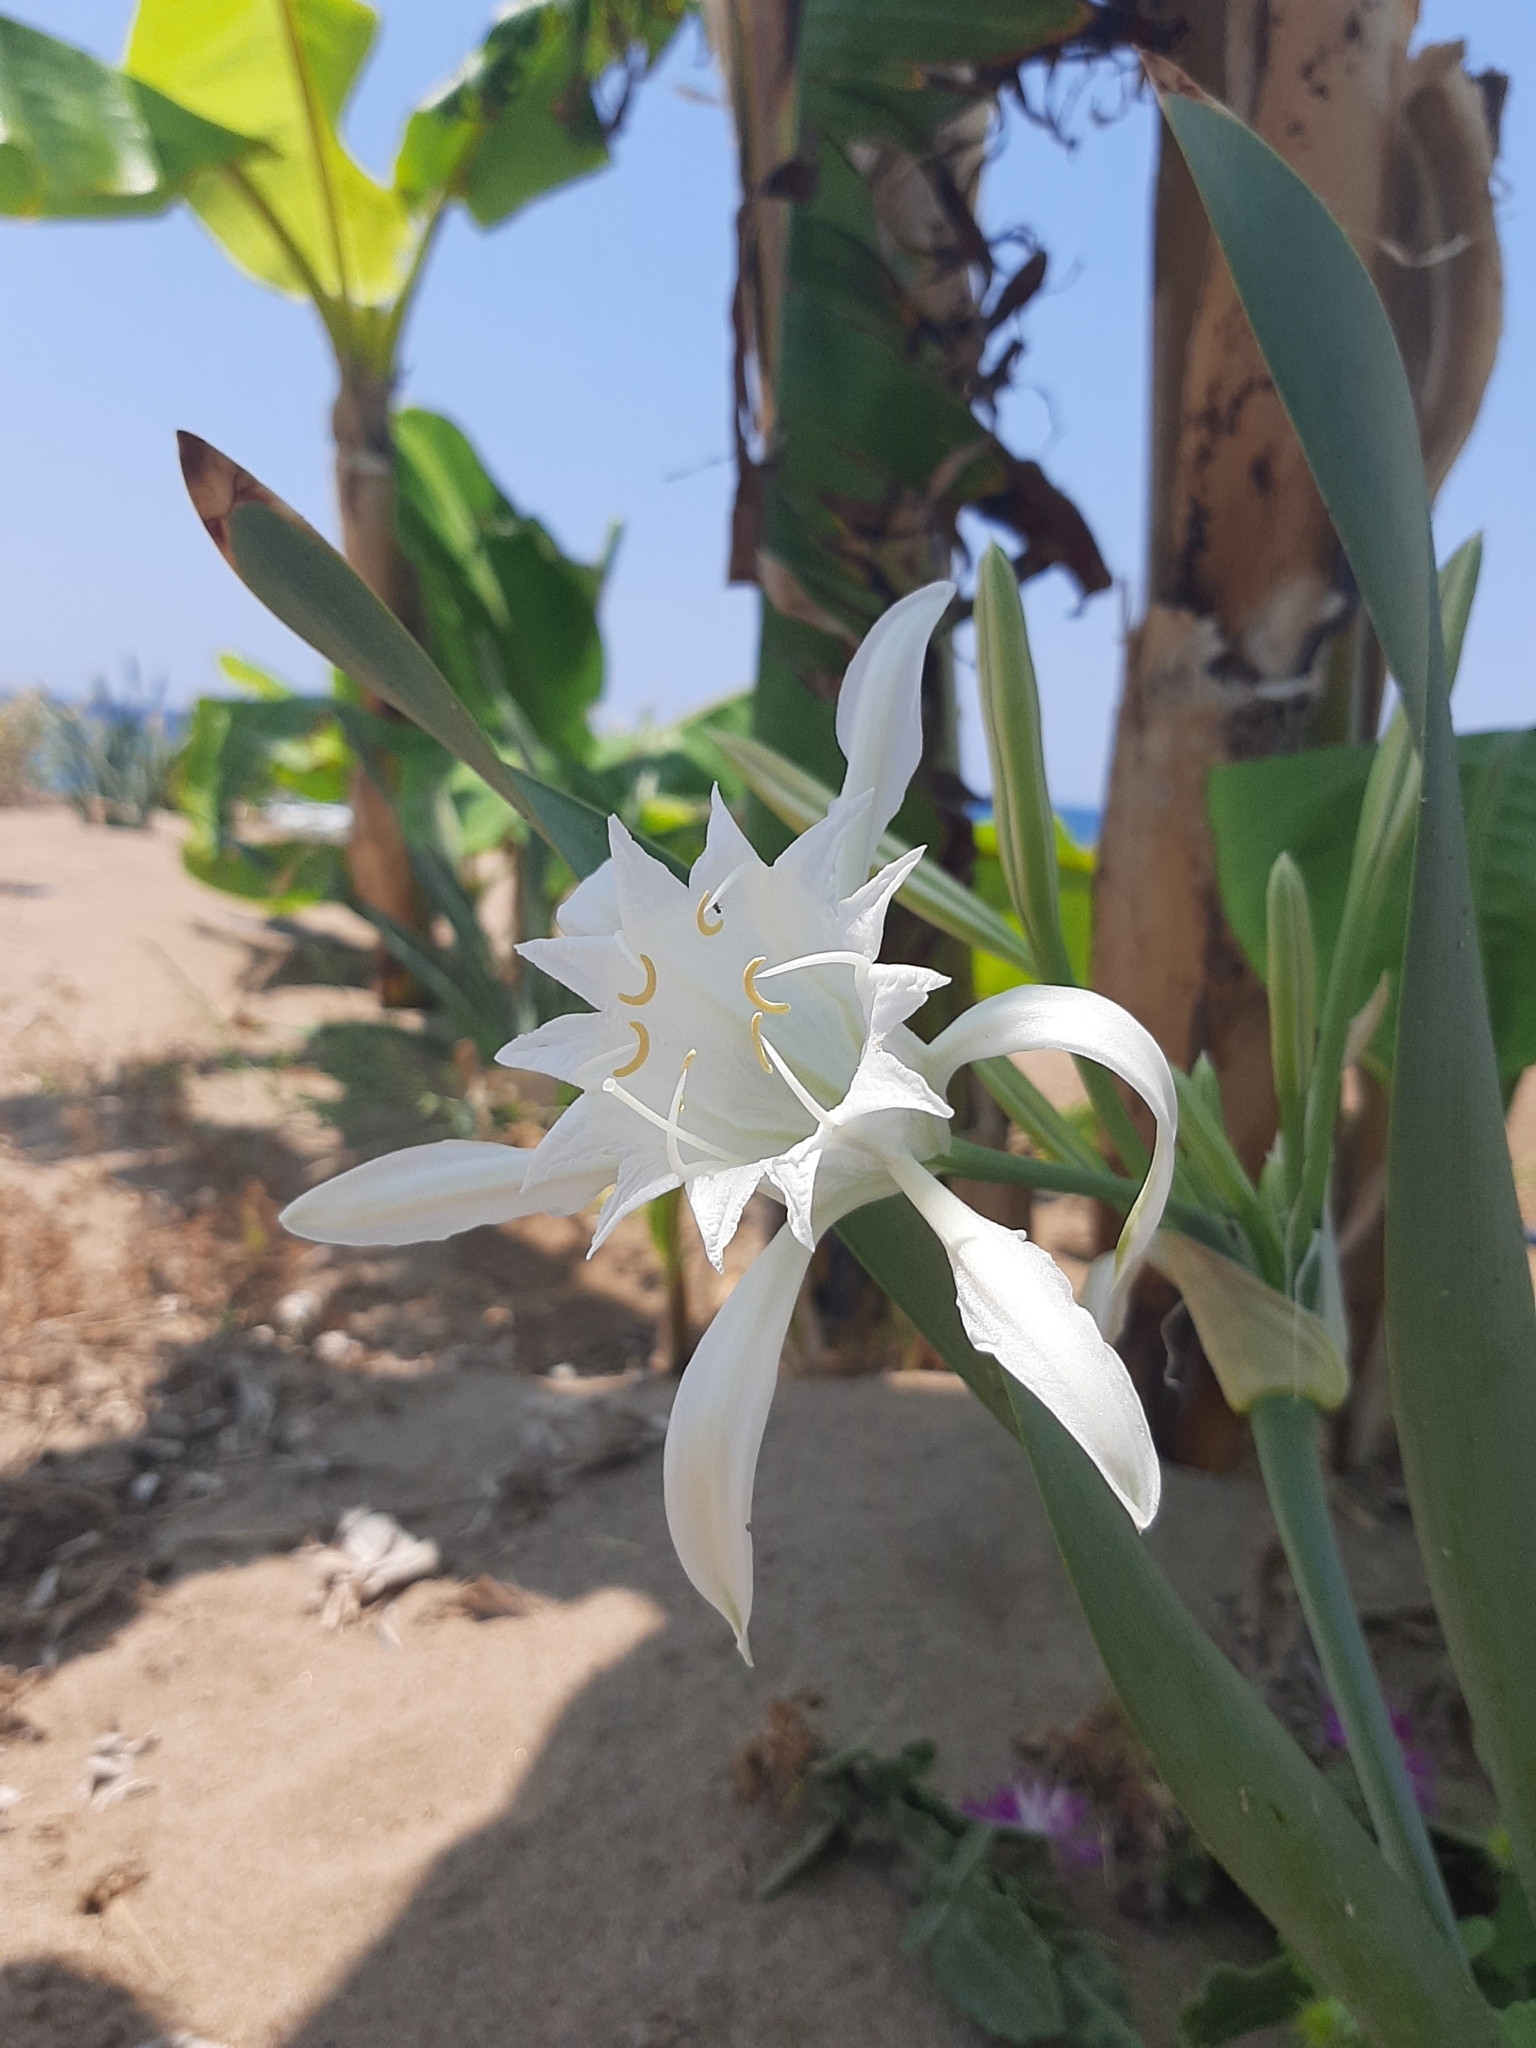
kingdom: Plantae
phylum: Tracheophyta
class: Liliopsida
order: Asparagales
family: Amaryllidaceae
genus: Pancratium
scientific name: Pancratium maritimum
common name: Sea-daffodil
